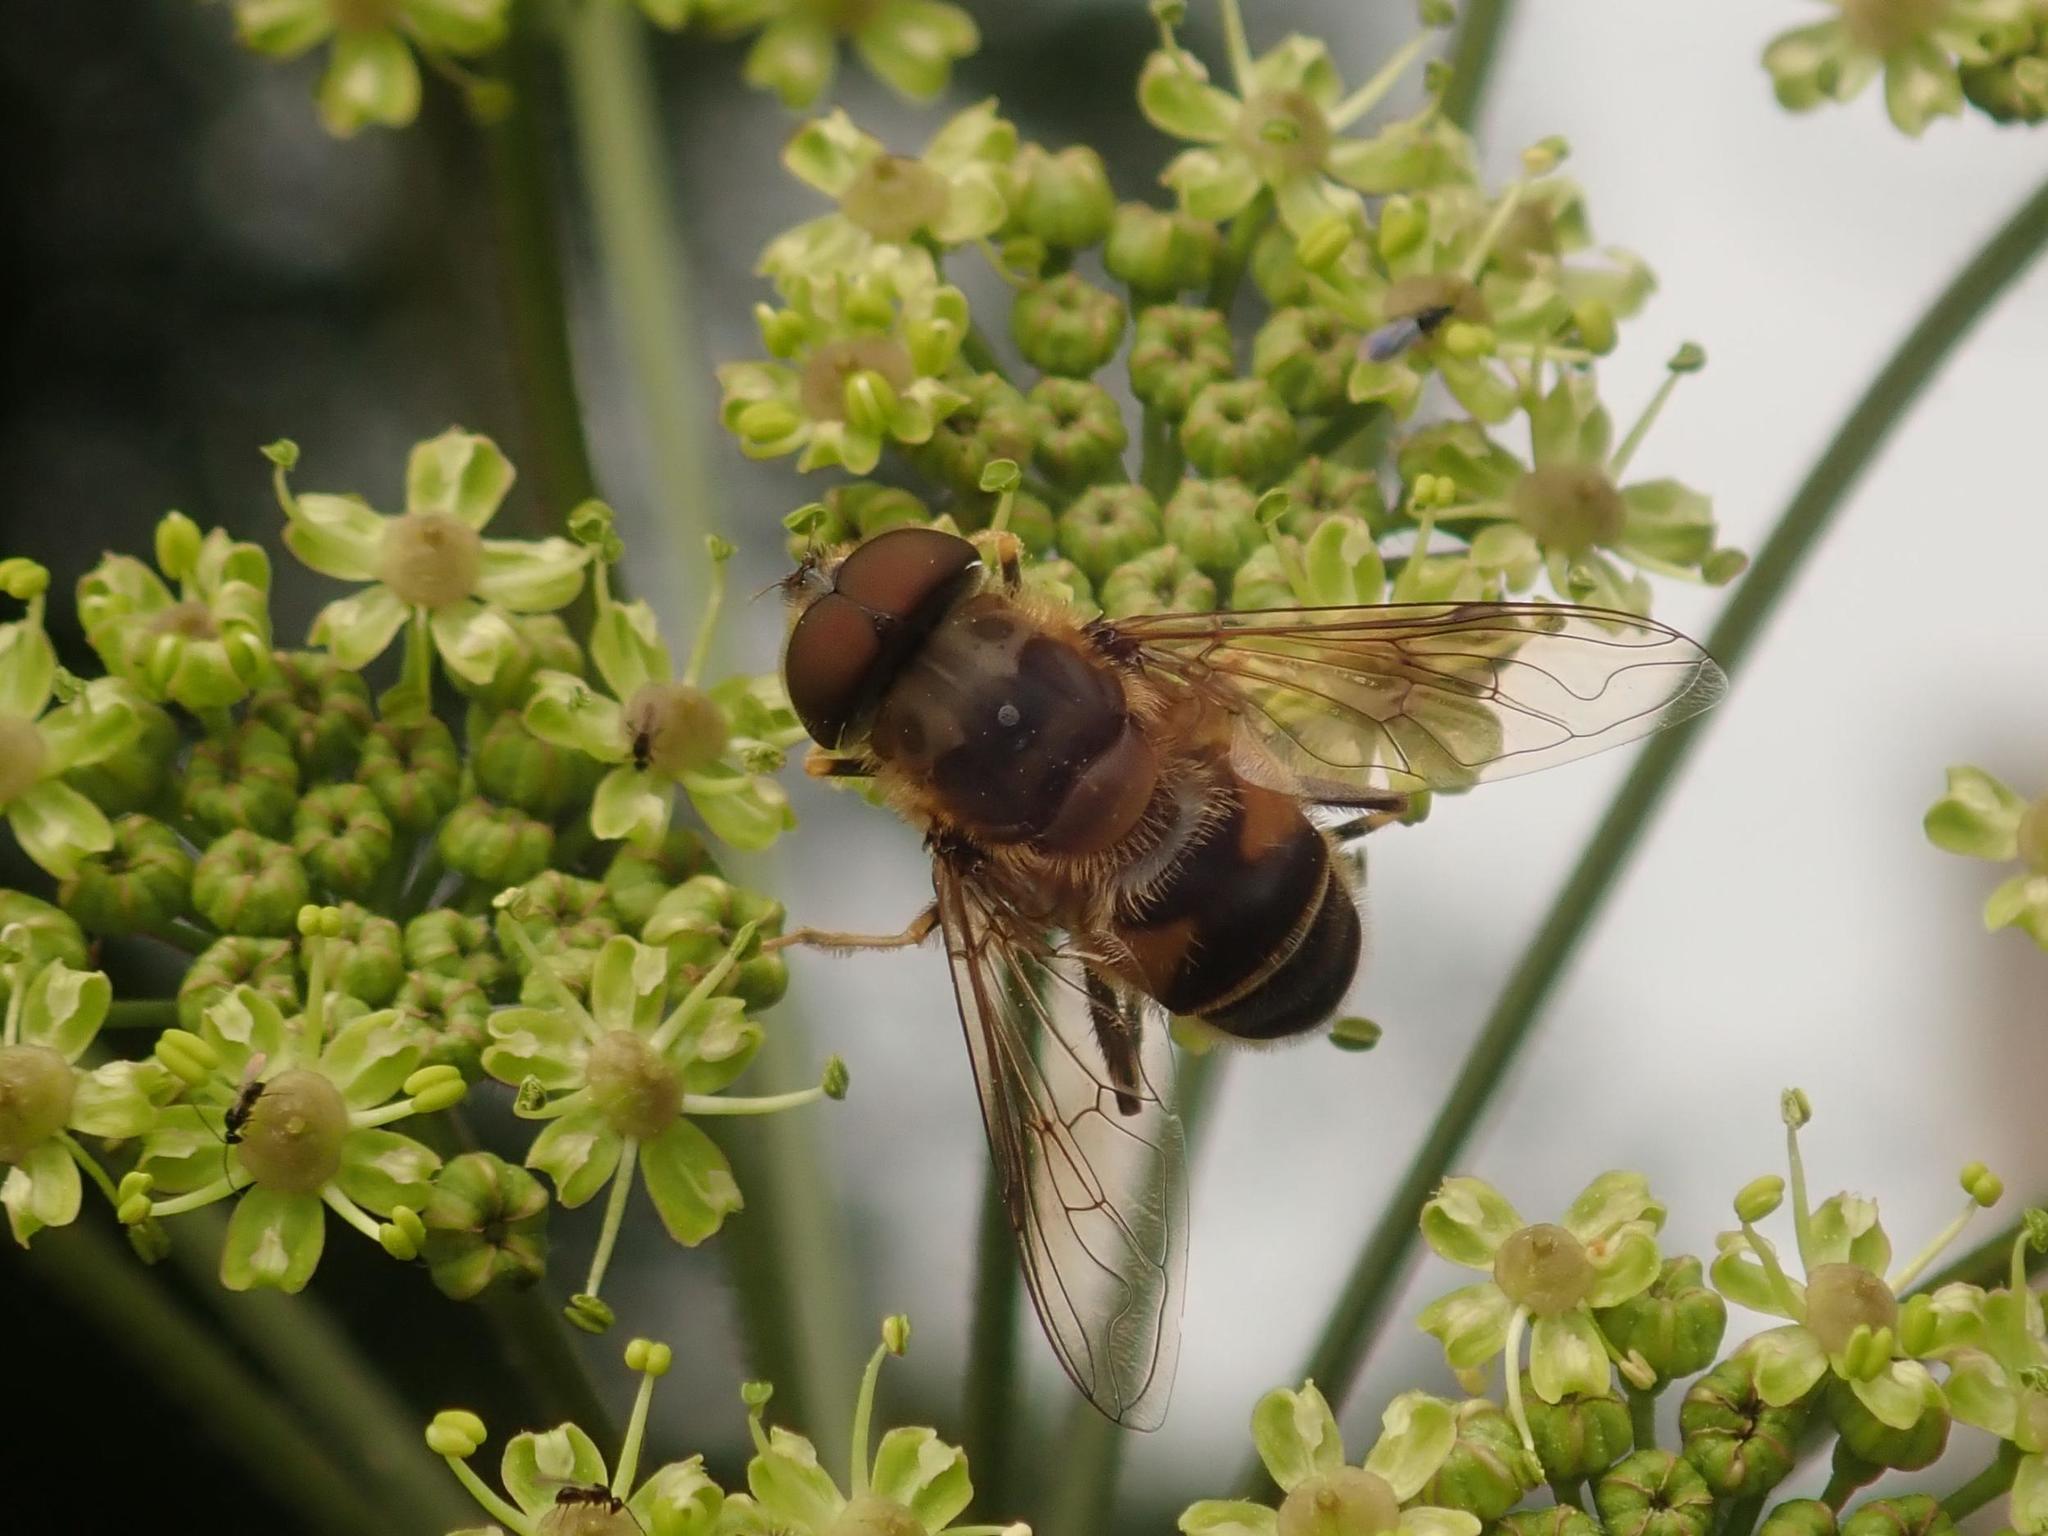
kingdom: Animalia
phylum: Arthropoda
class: Insecta
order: Diptera
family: Syrphidae
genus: Eristalis
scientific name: Eristalis pertinax
